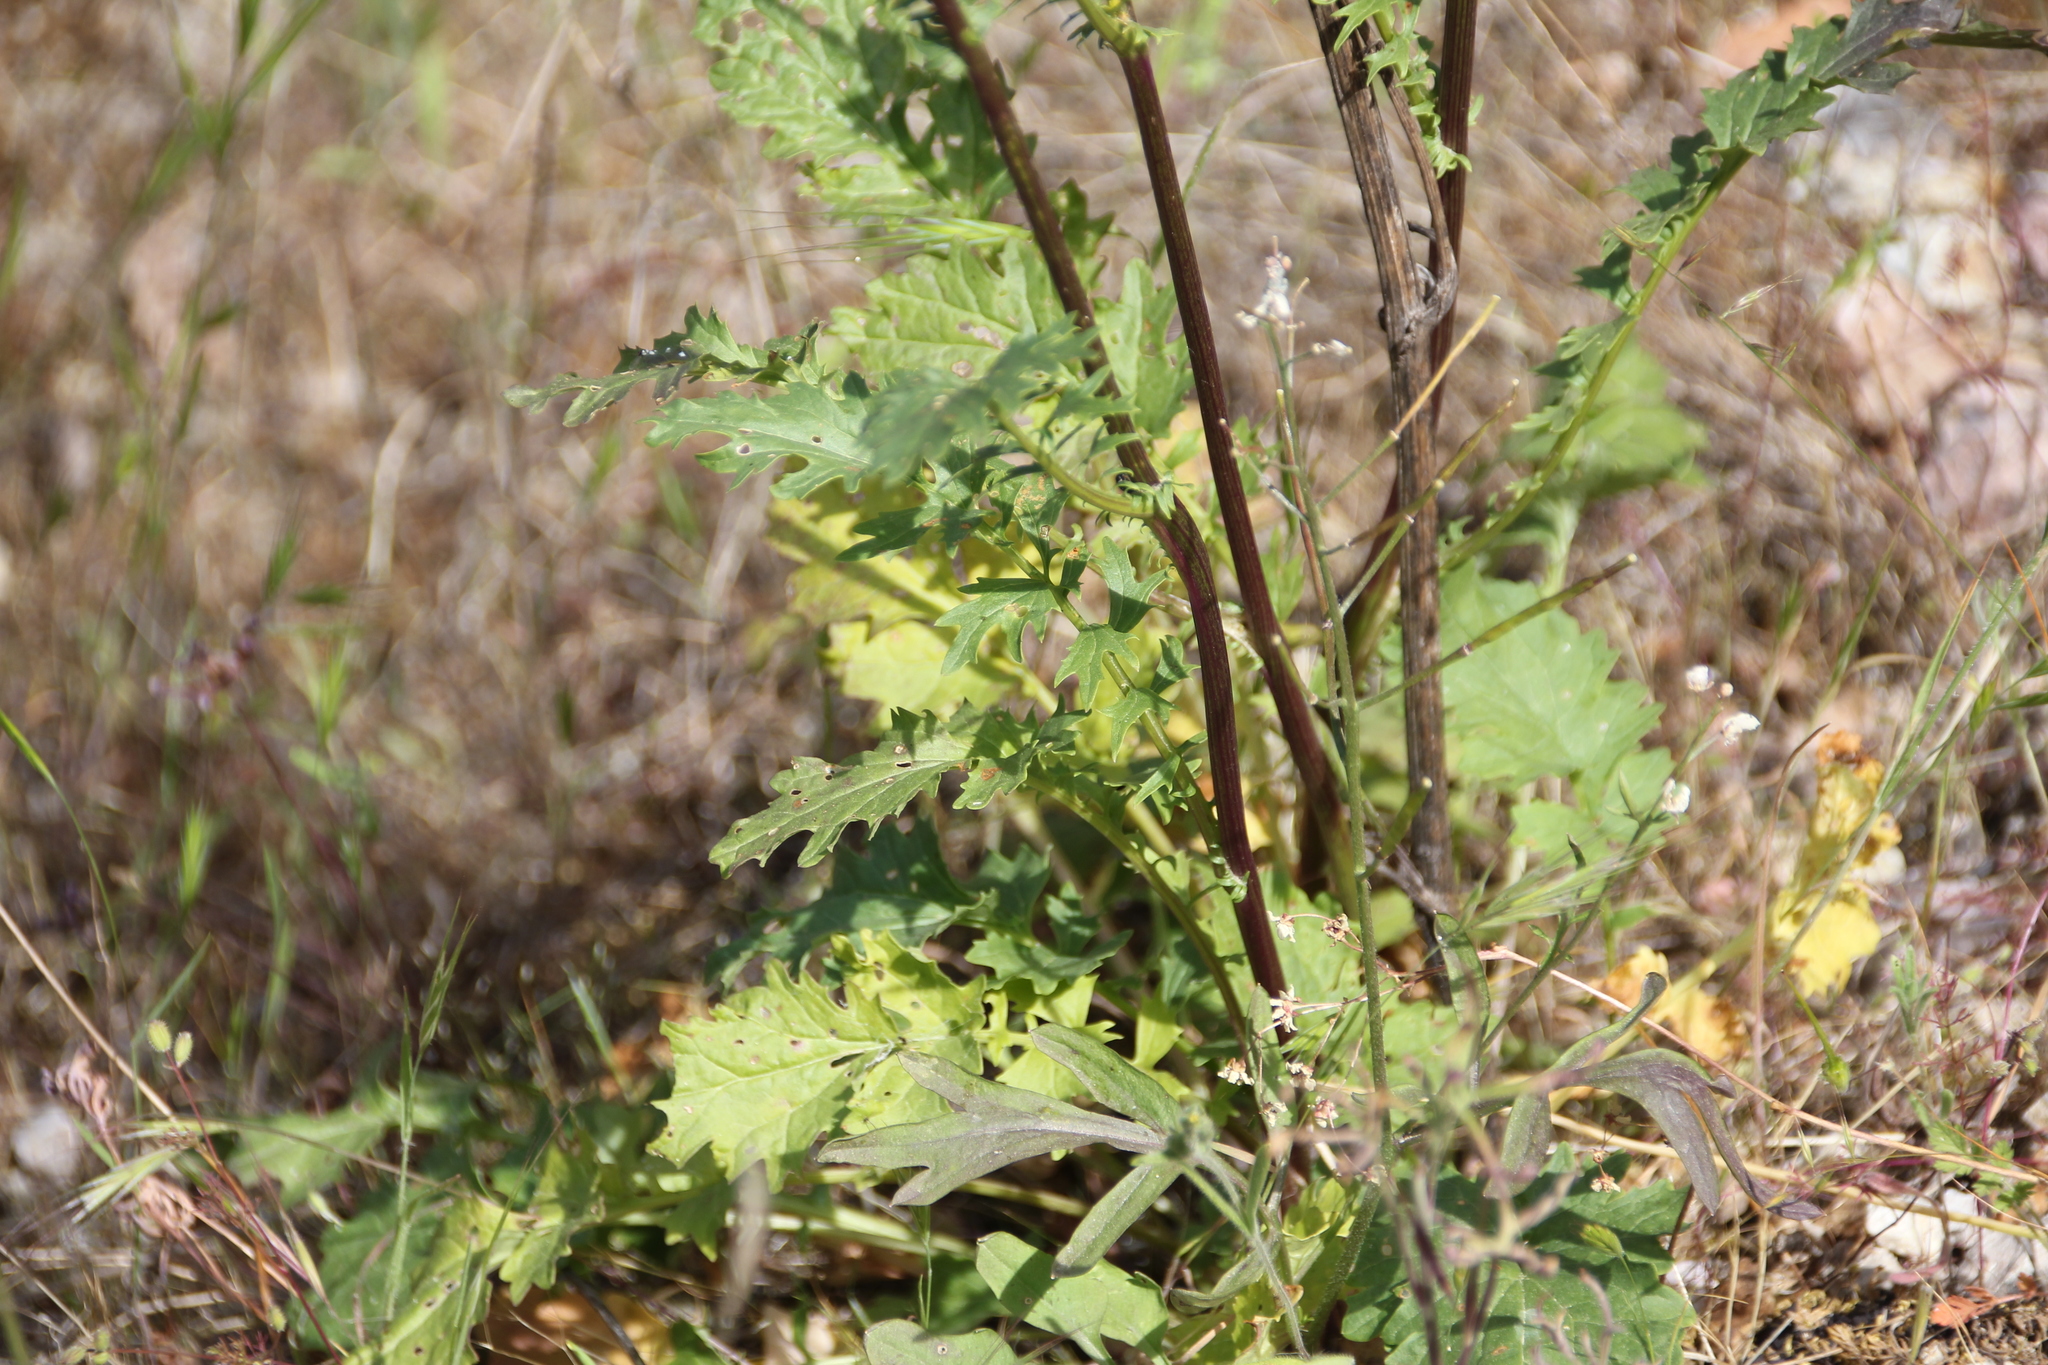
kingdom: Plantae
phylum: Tracheophyta
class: Magnoliopsida
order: Asterales
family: Asteraceae
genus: Packera
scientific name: Packera breweri
